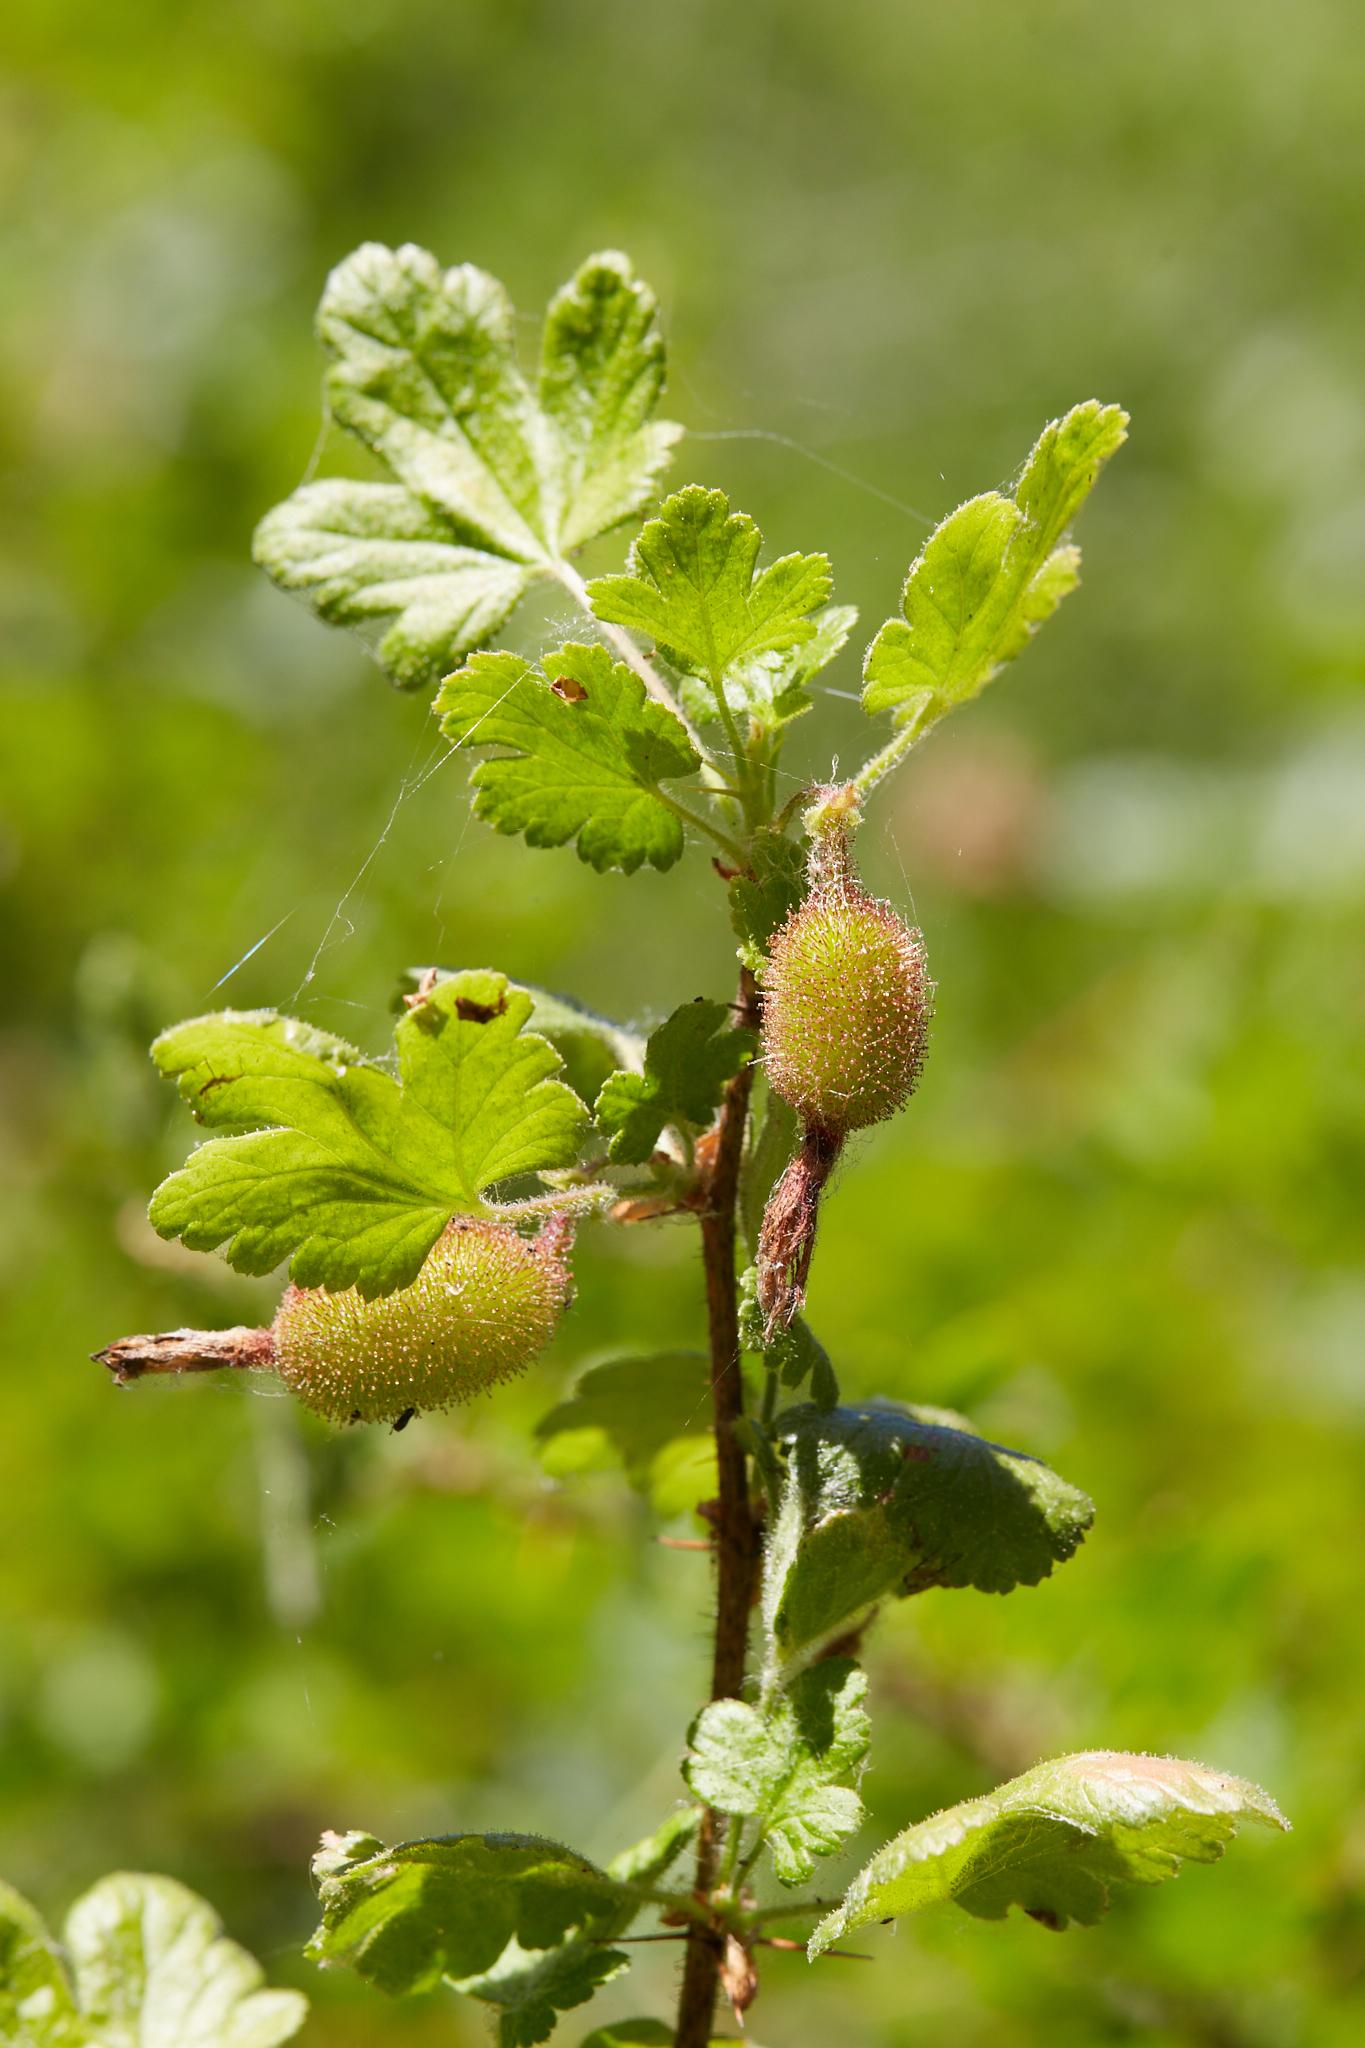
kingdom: Plantae
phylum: Tracheophyta
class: Magnoliopsida
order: Saxifragales
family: Grossulariaceae
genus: Ribes
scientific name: Ribes menziesii
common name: Canyon gooseberry
